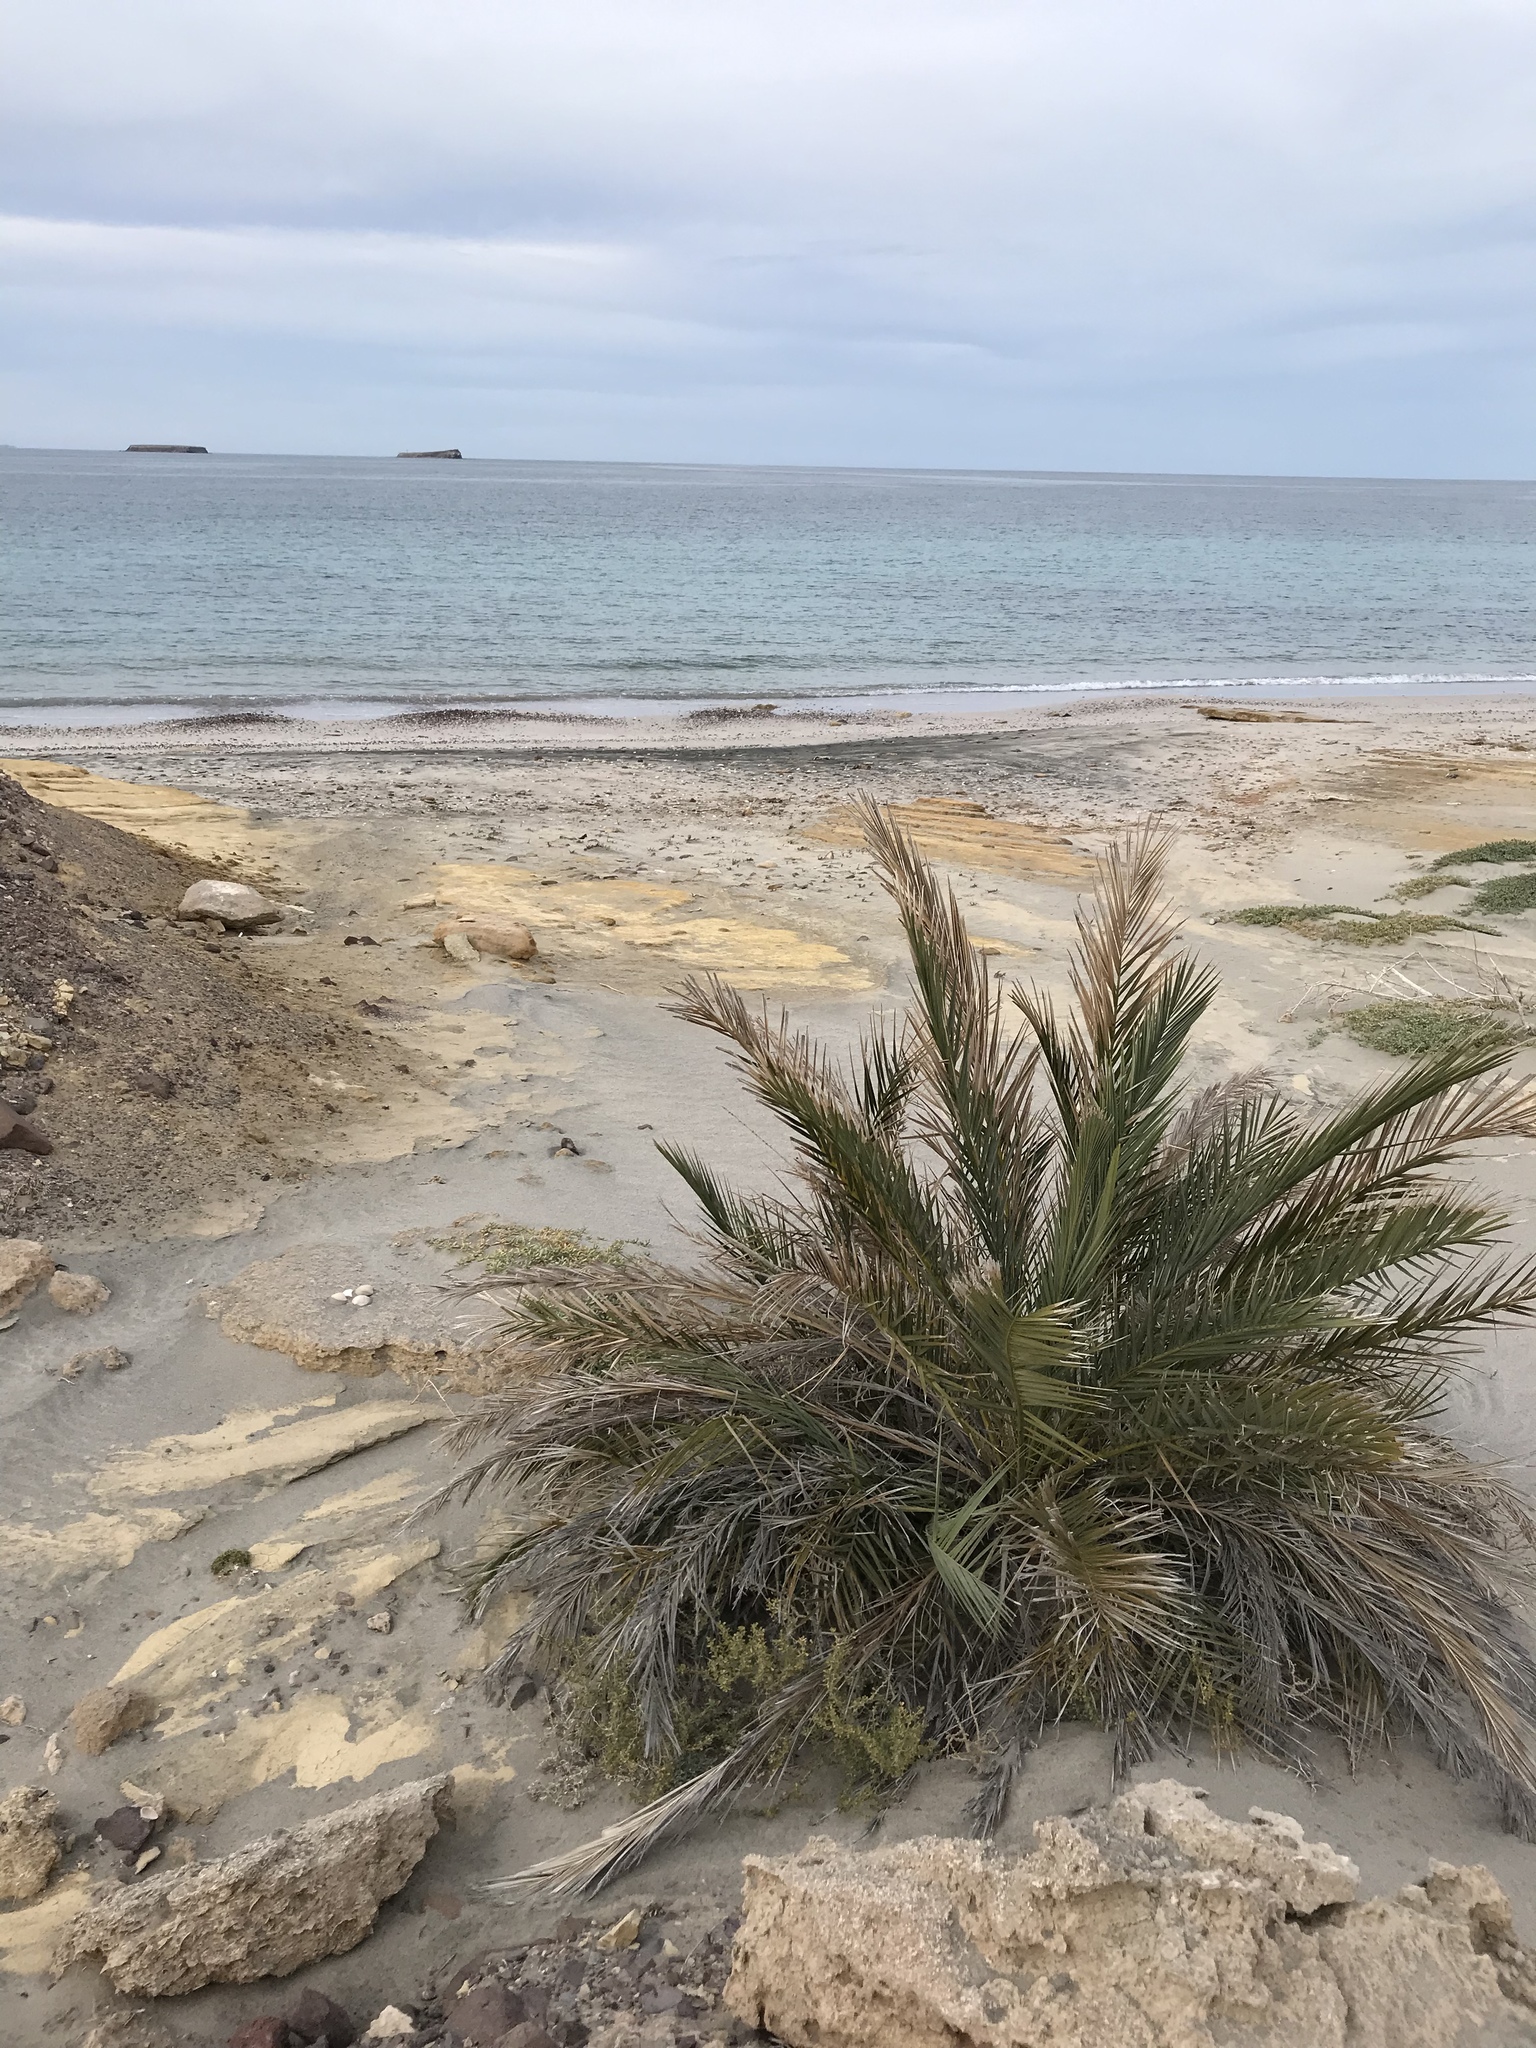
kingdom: Plantae
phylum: Tracheophyta
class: Liliopsida
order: Arecales
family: Arecaceae
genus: Phoenix
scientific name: Phoenix dactylifera
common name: Date palm
